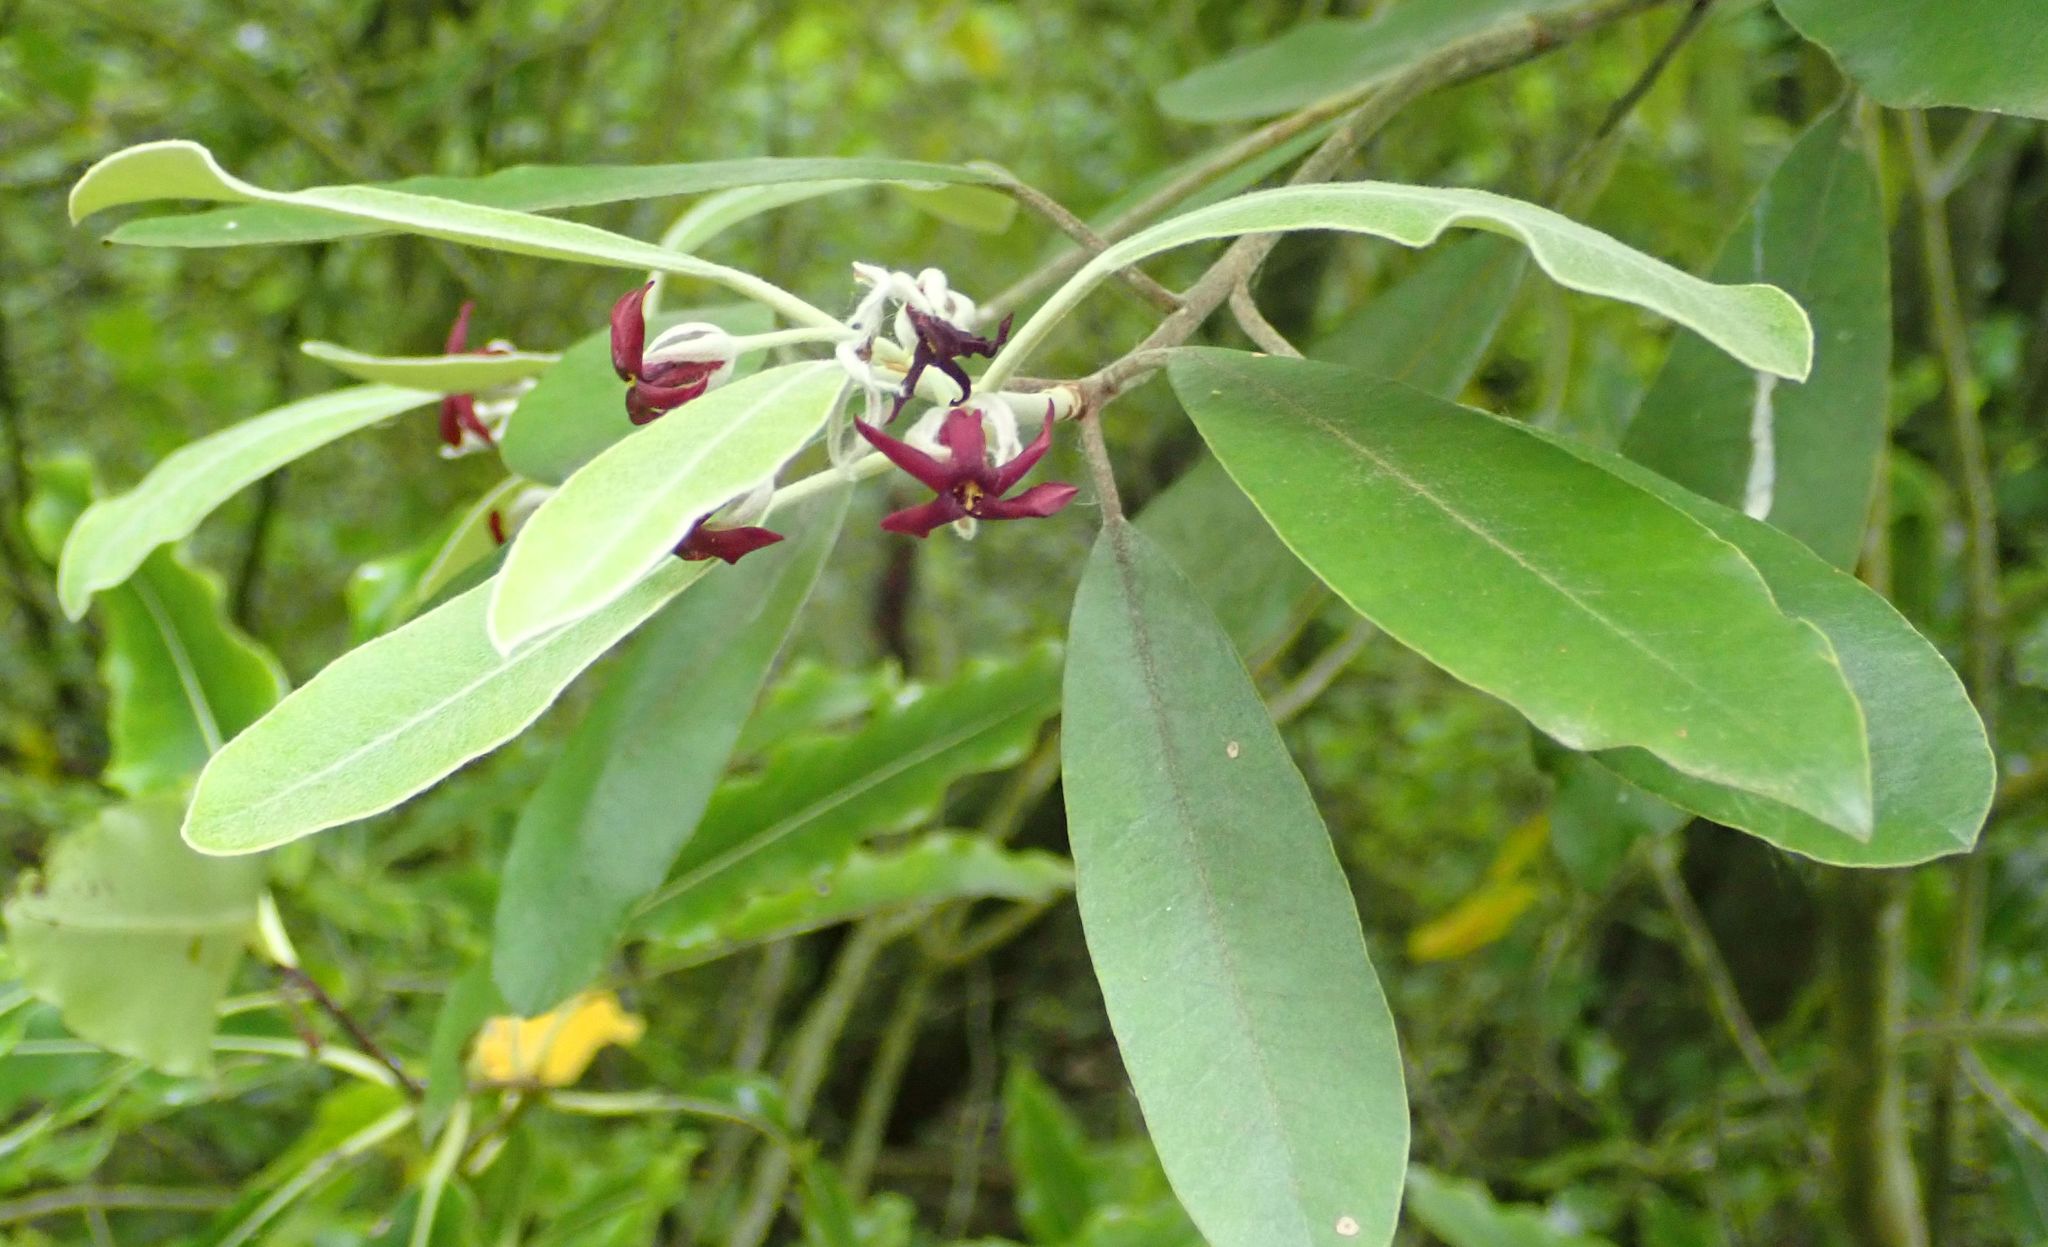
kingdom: Plantae
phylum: Tracheophyta
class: Magnoliopsida
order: Apiales
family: Pittosporaceae
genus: Pittosporum
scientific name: Pittosporum ralphii
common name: Ralph's desertwillow
